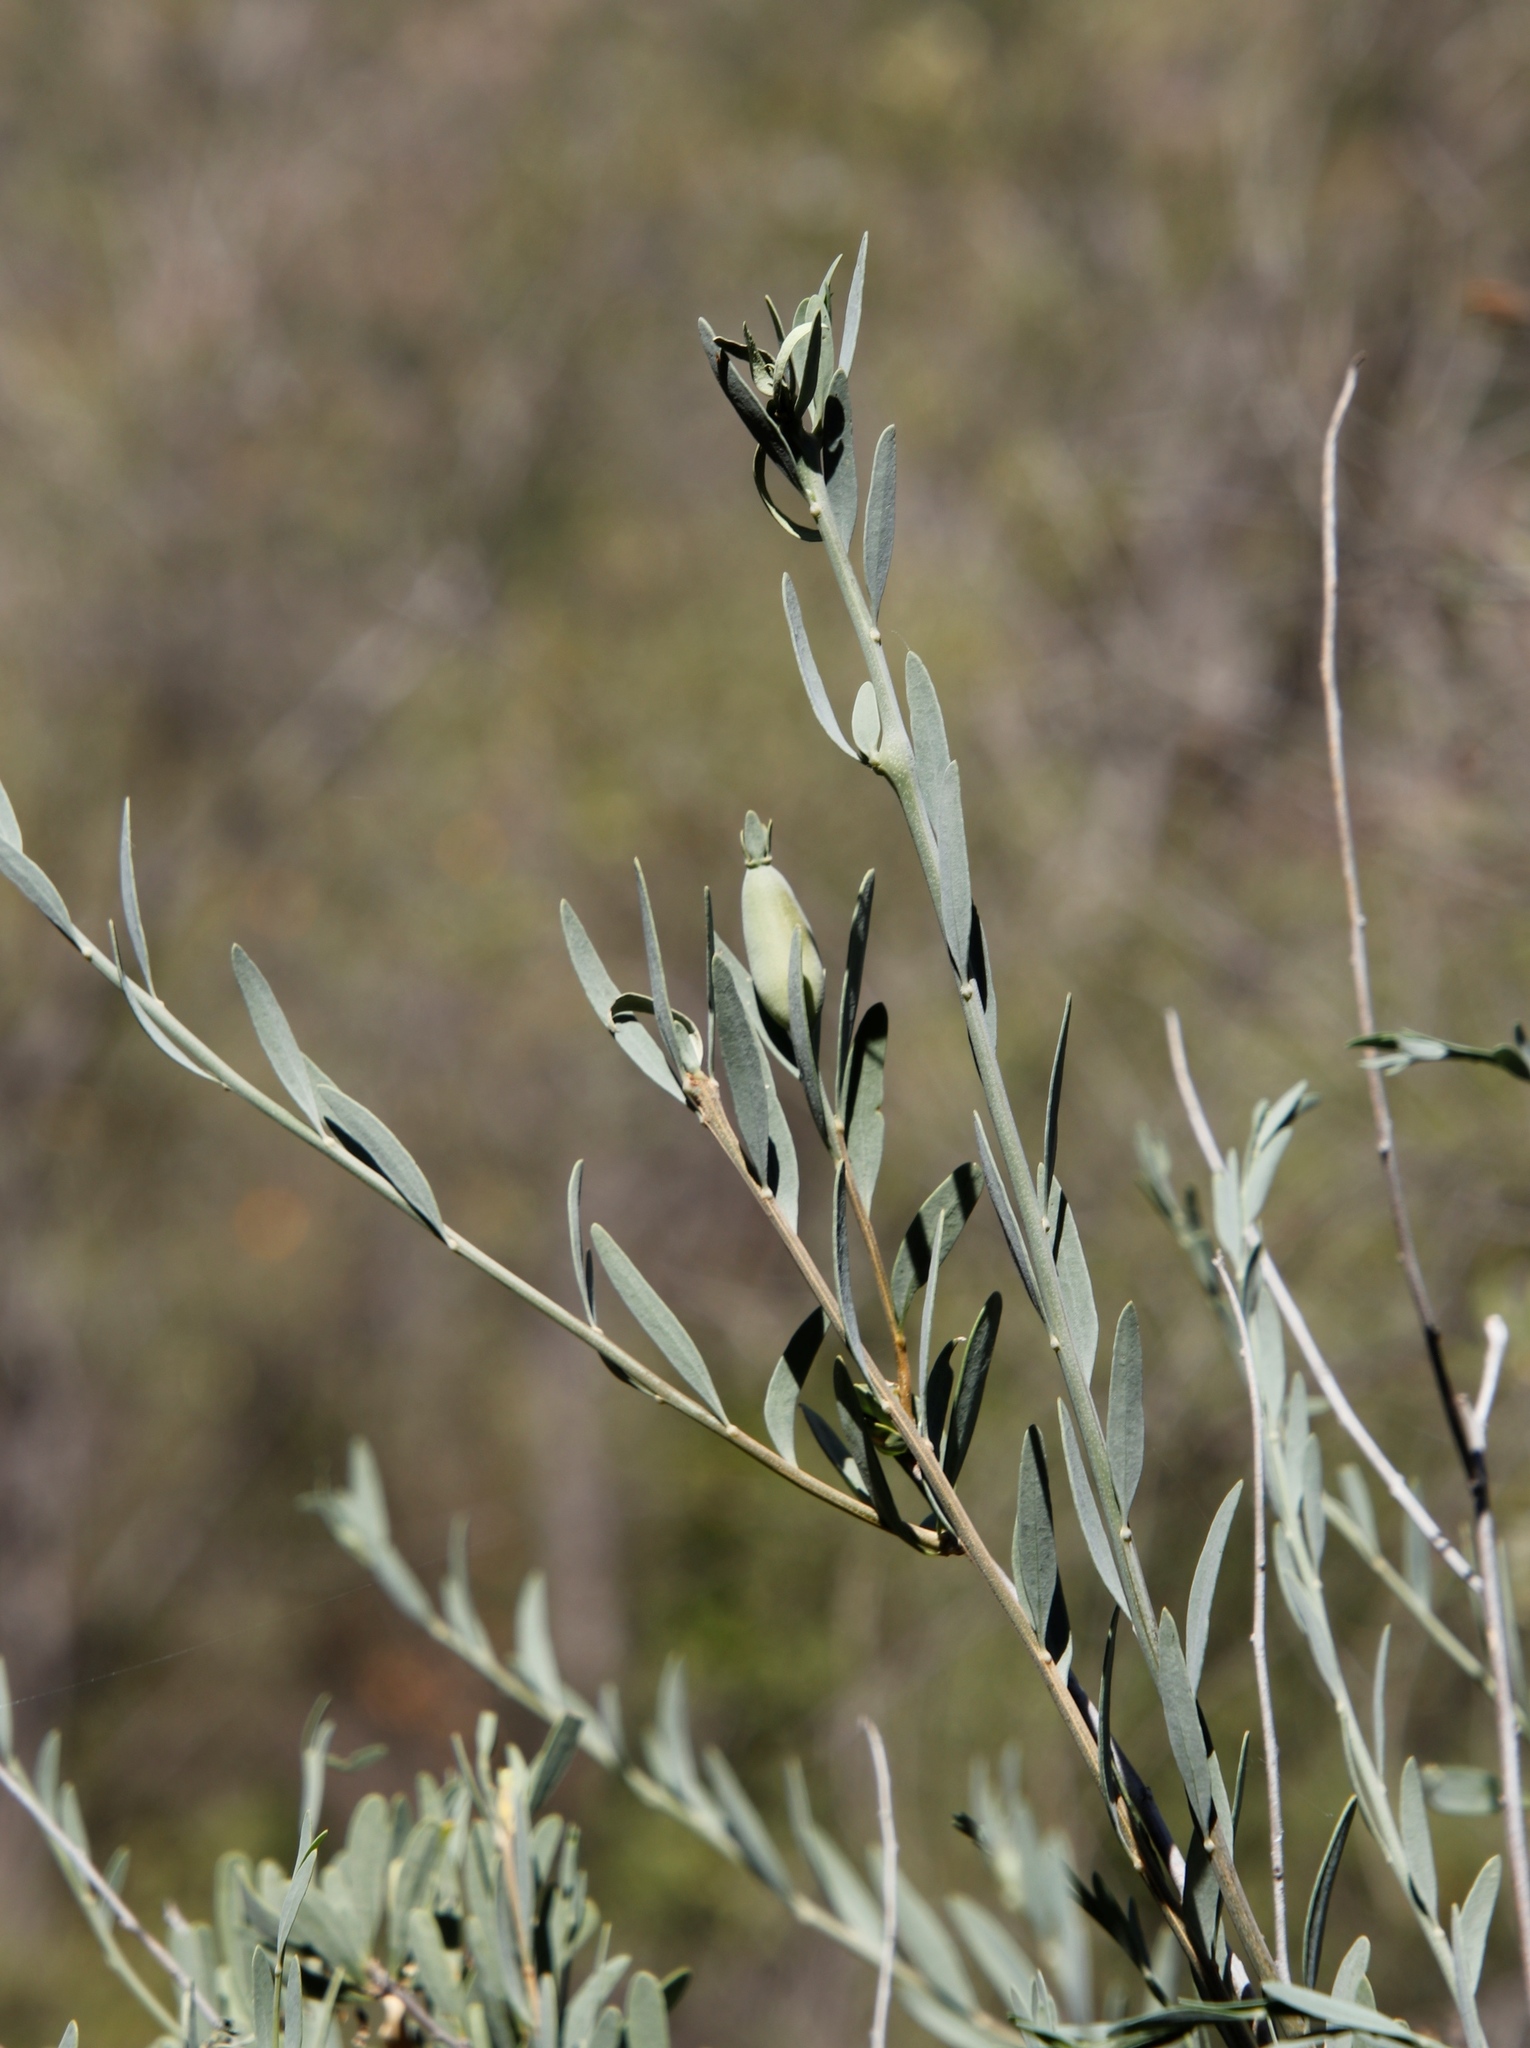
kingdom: Plantae
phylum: Tracheophyta
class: Magnoliopsida
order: Solanales
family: Montiniaceae
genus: Montinia
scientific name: Montinia caryophyllacea
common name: Wild clove-bush
